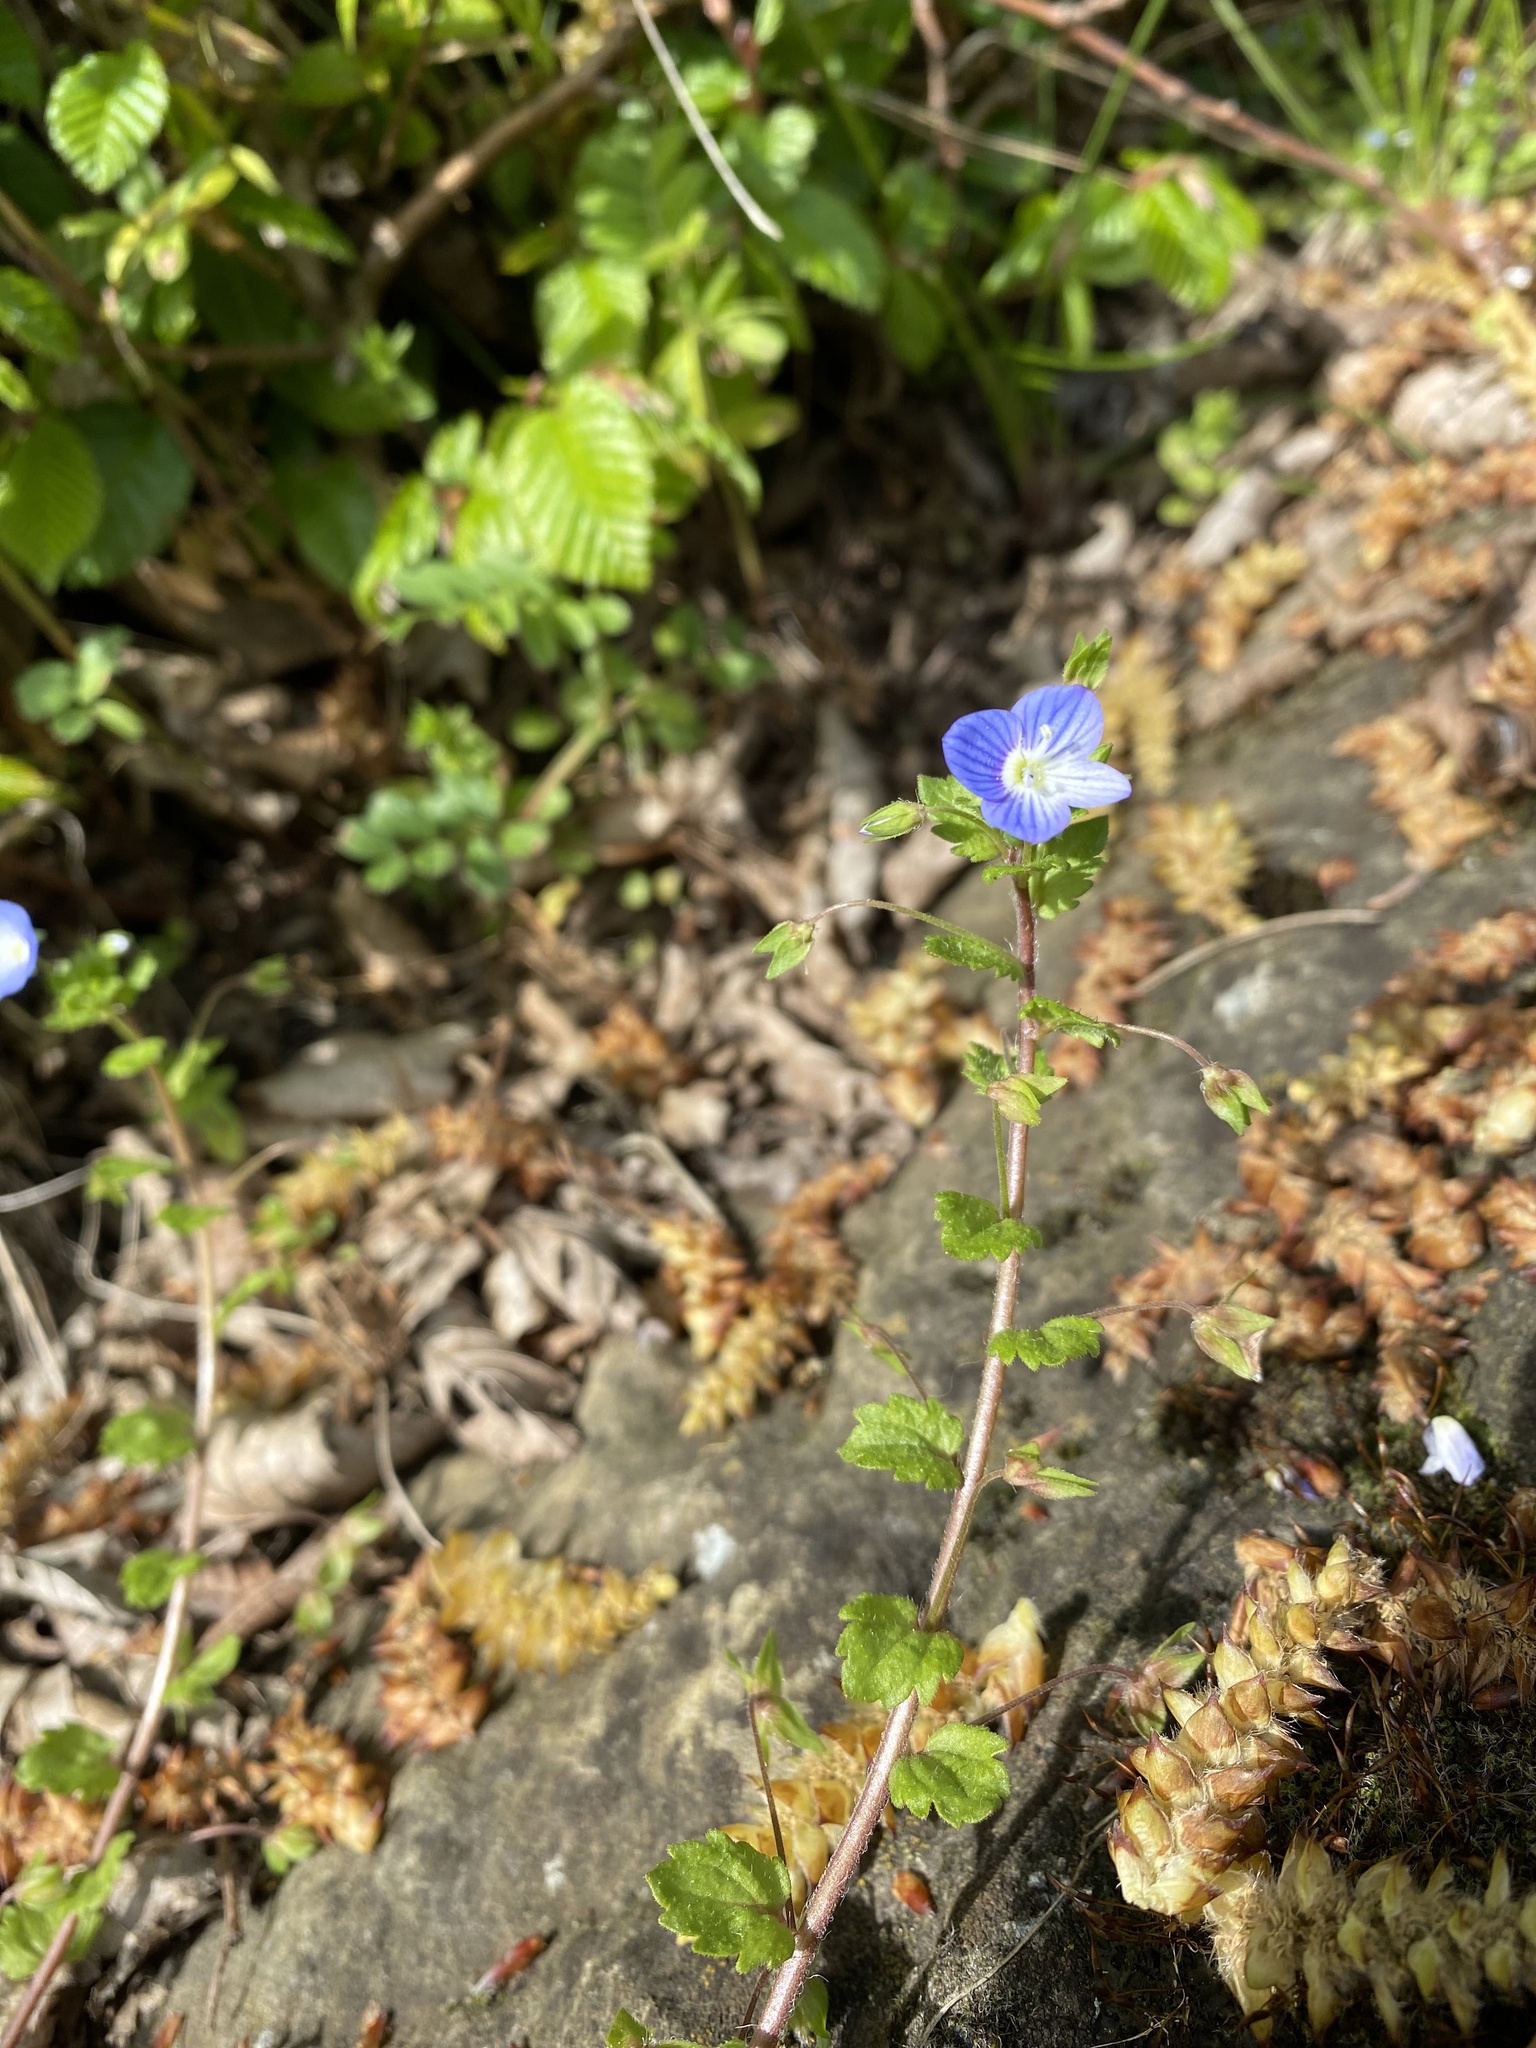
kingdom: Plantae
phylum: Tracheophyta
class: Magnoliopsida
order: Lamiales
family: Plantaginaceae
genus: Veronica
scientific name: Veronica persica
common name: Common field-speedwell
